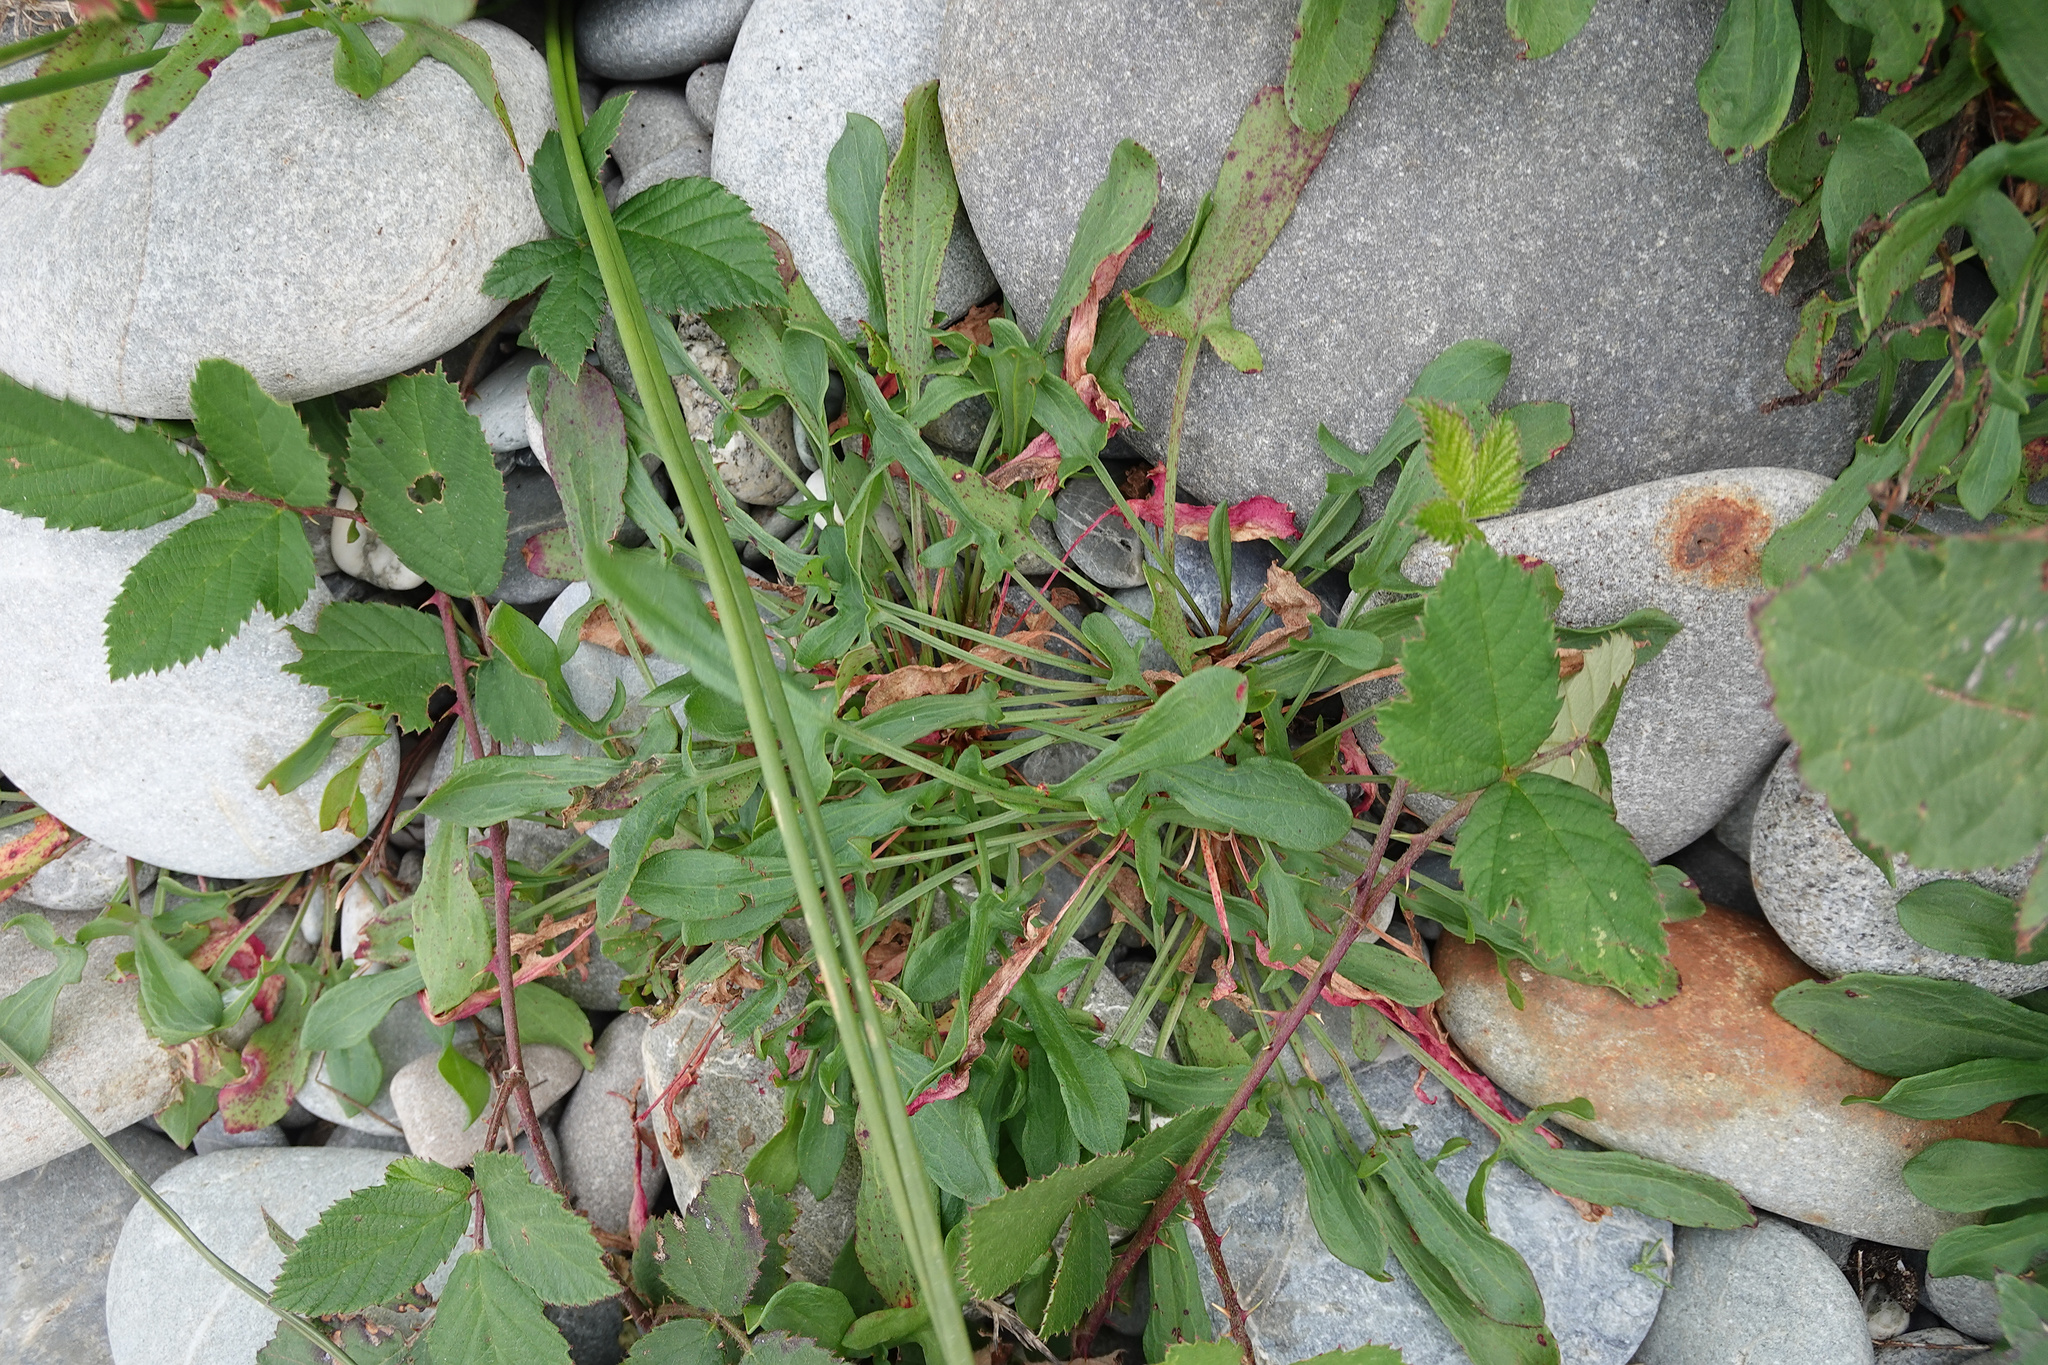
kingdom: Plantae
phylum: Tracheophyta
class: Magnoliopsida
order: Caryophyllales
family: Polygonaceae
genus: Rumex
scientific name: Rumex acetosella
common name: Common sheep sorrel
